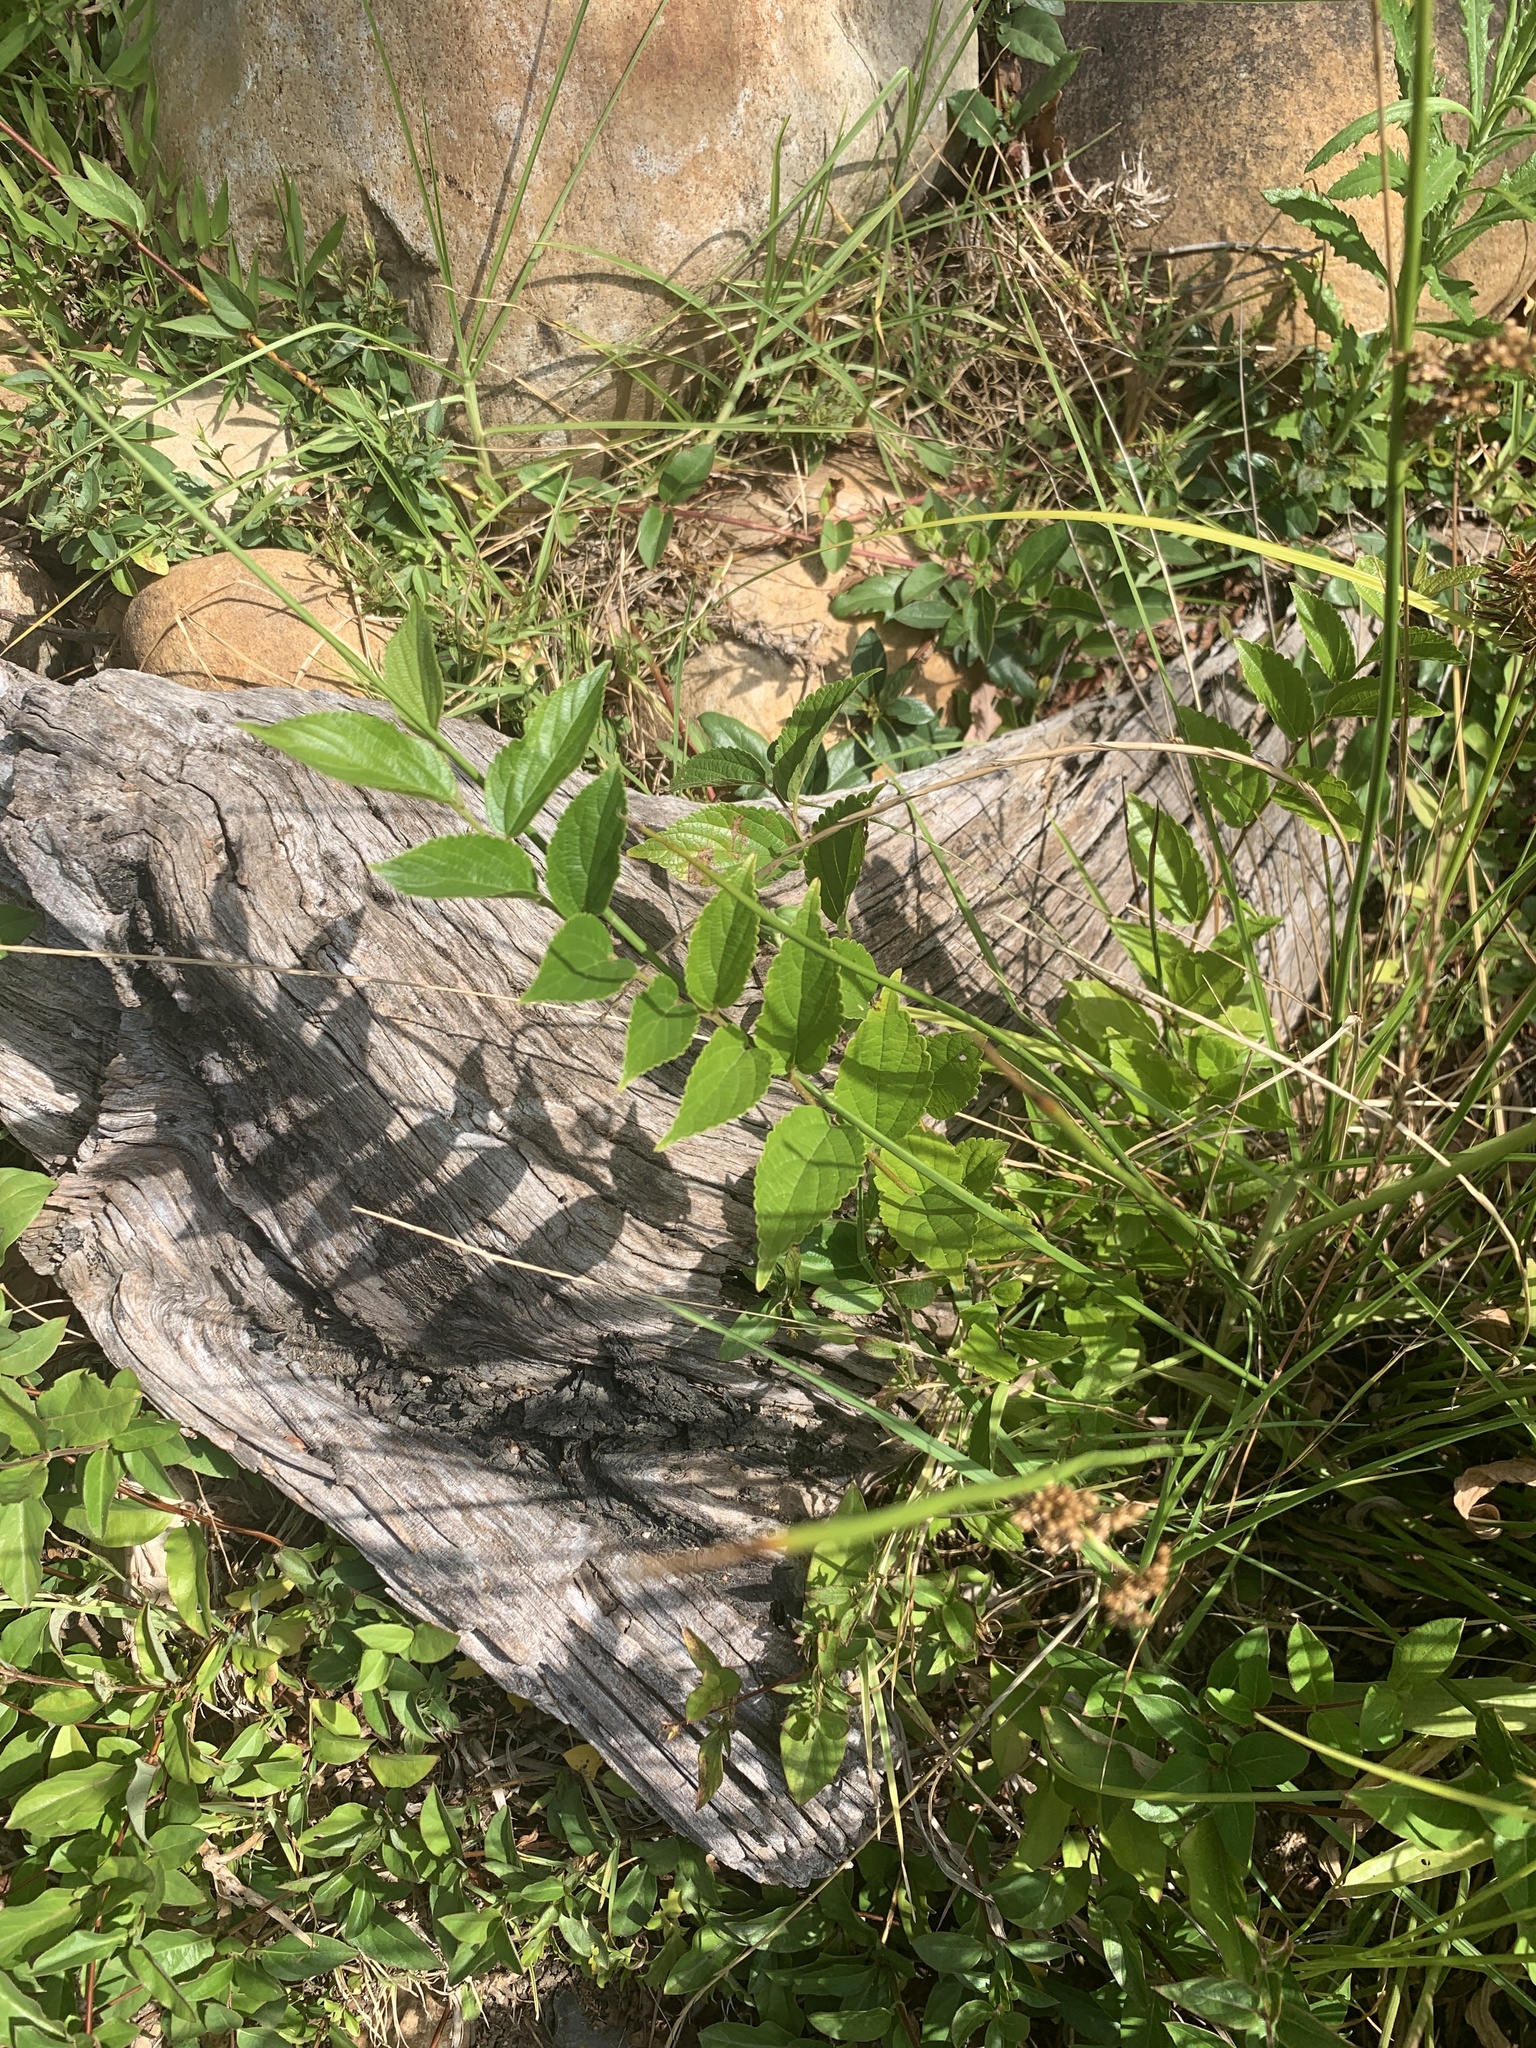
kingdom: Plantae
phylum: Tracheophyta
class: Magnoliopsida
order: Rosales
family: Cannabaceae
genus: Celtis
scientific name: Celtis sinensis
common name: Chinese hackberry
